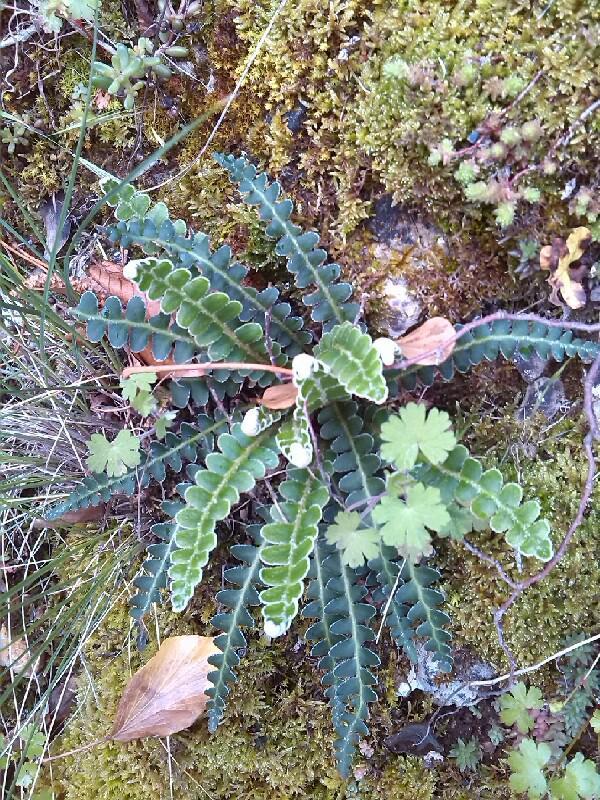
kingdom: Plantae
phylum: Tracheophyta
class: Polypodiopsida
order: Polypodiales
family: Aspleniaceae
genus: Asplenium
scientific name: Asplenium ceterach
